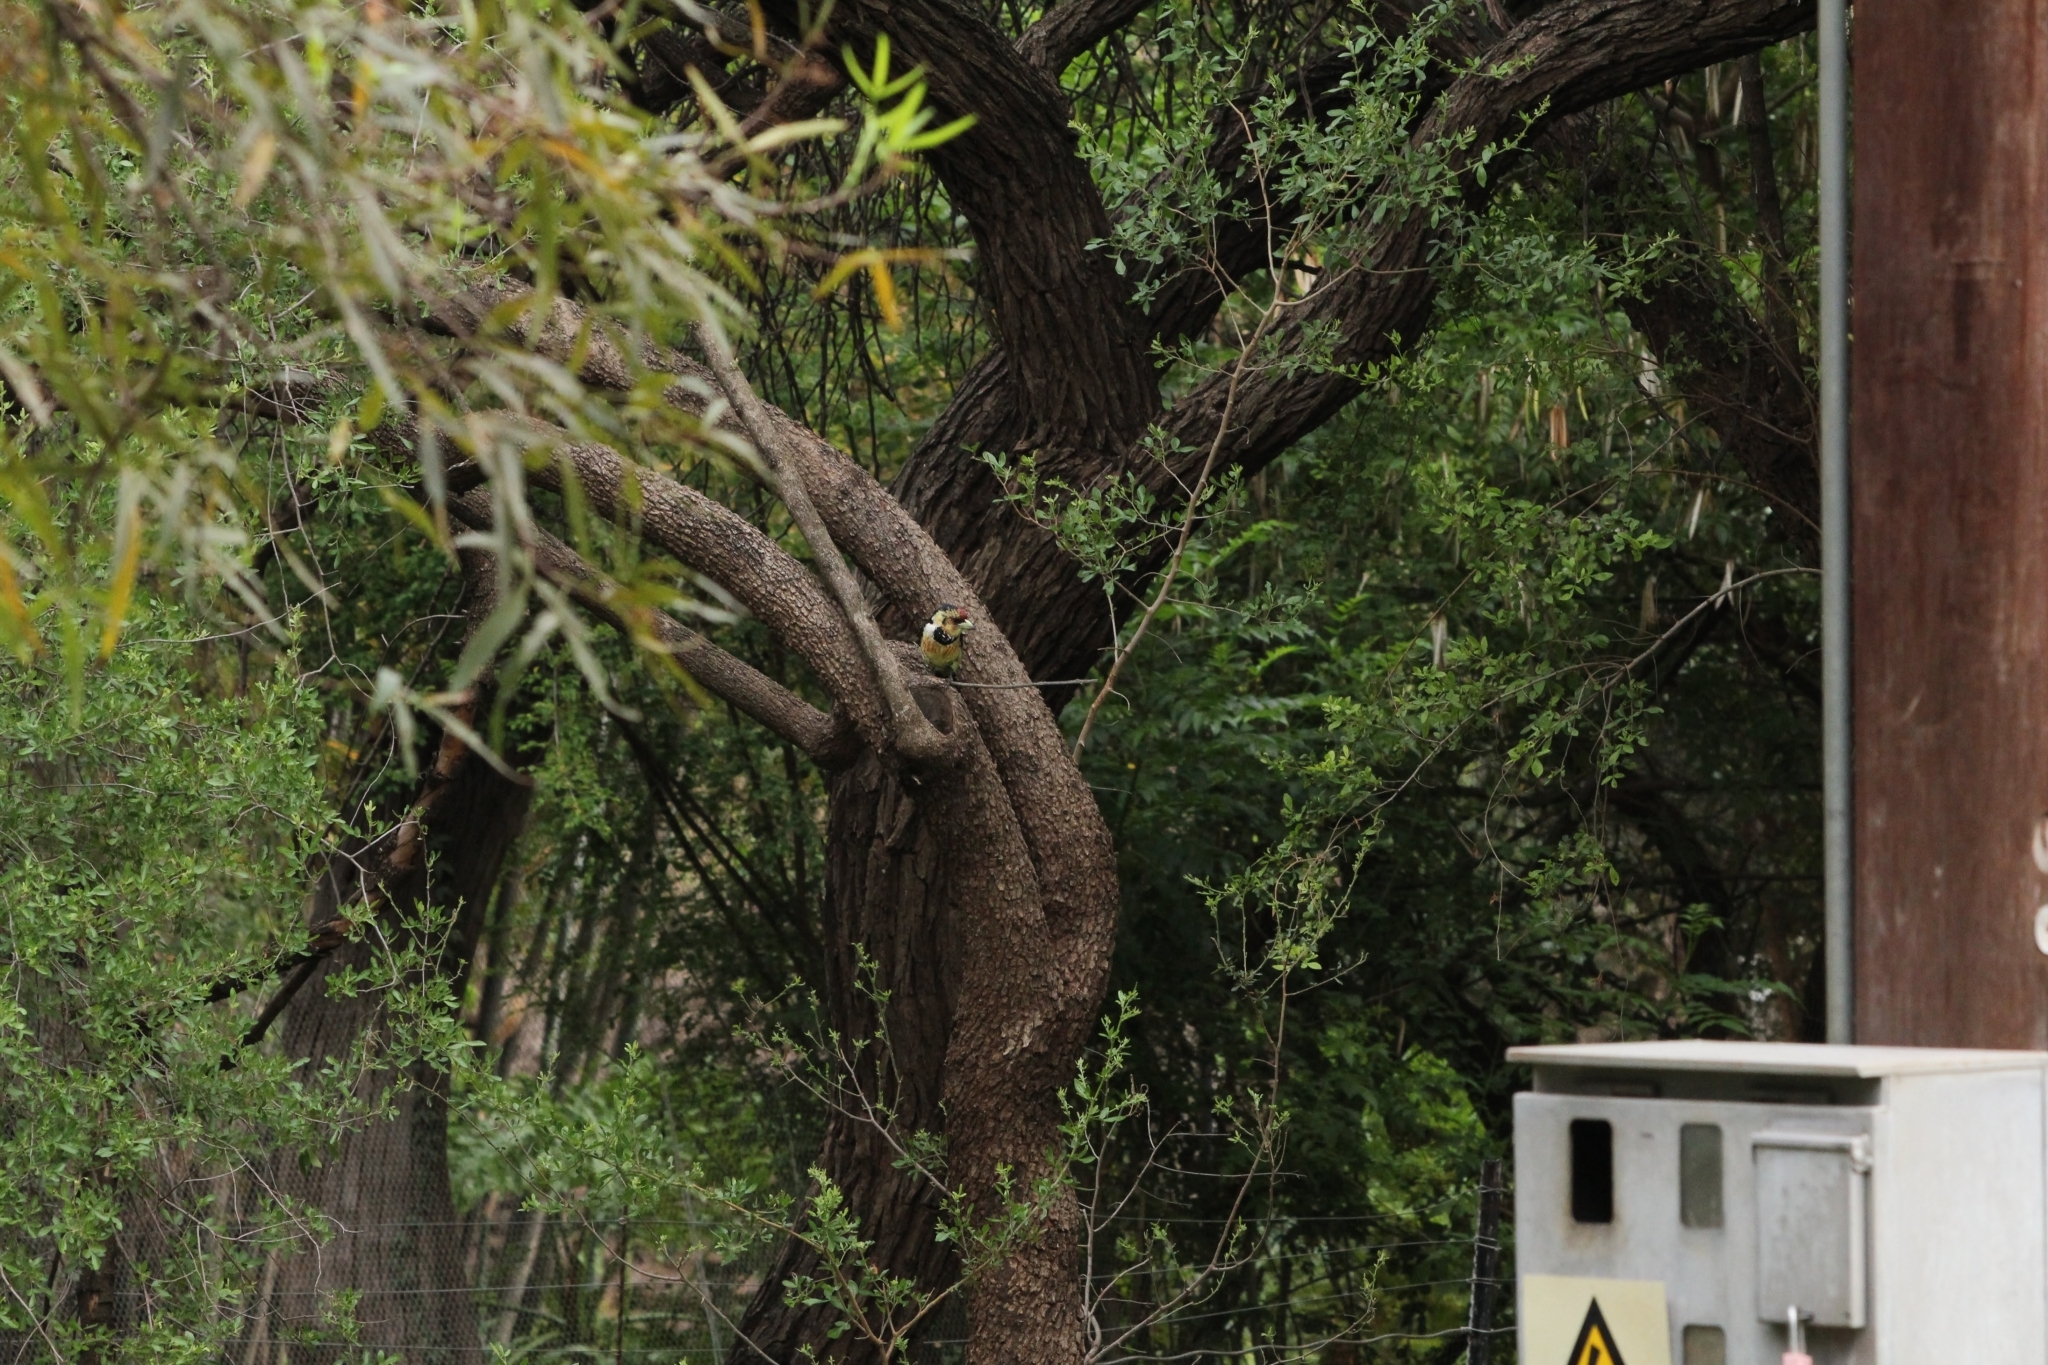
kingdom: Animalia
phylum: Chordata
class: Aves
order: Piciformes
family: Lybiidae
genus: Trachyphonus
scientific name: Trachyphonus vaillantii
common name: Crested barbet
